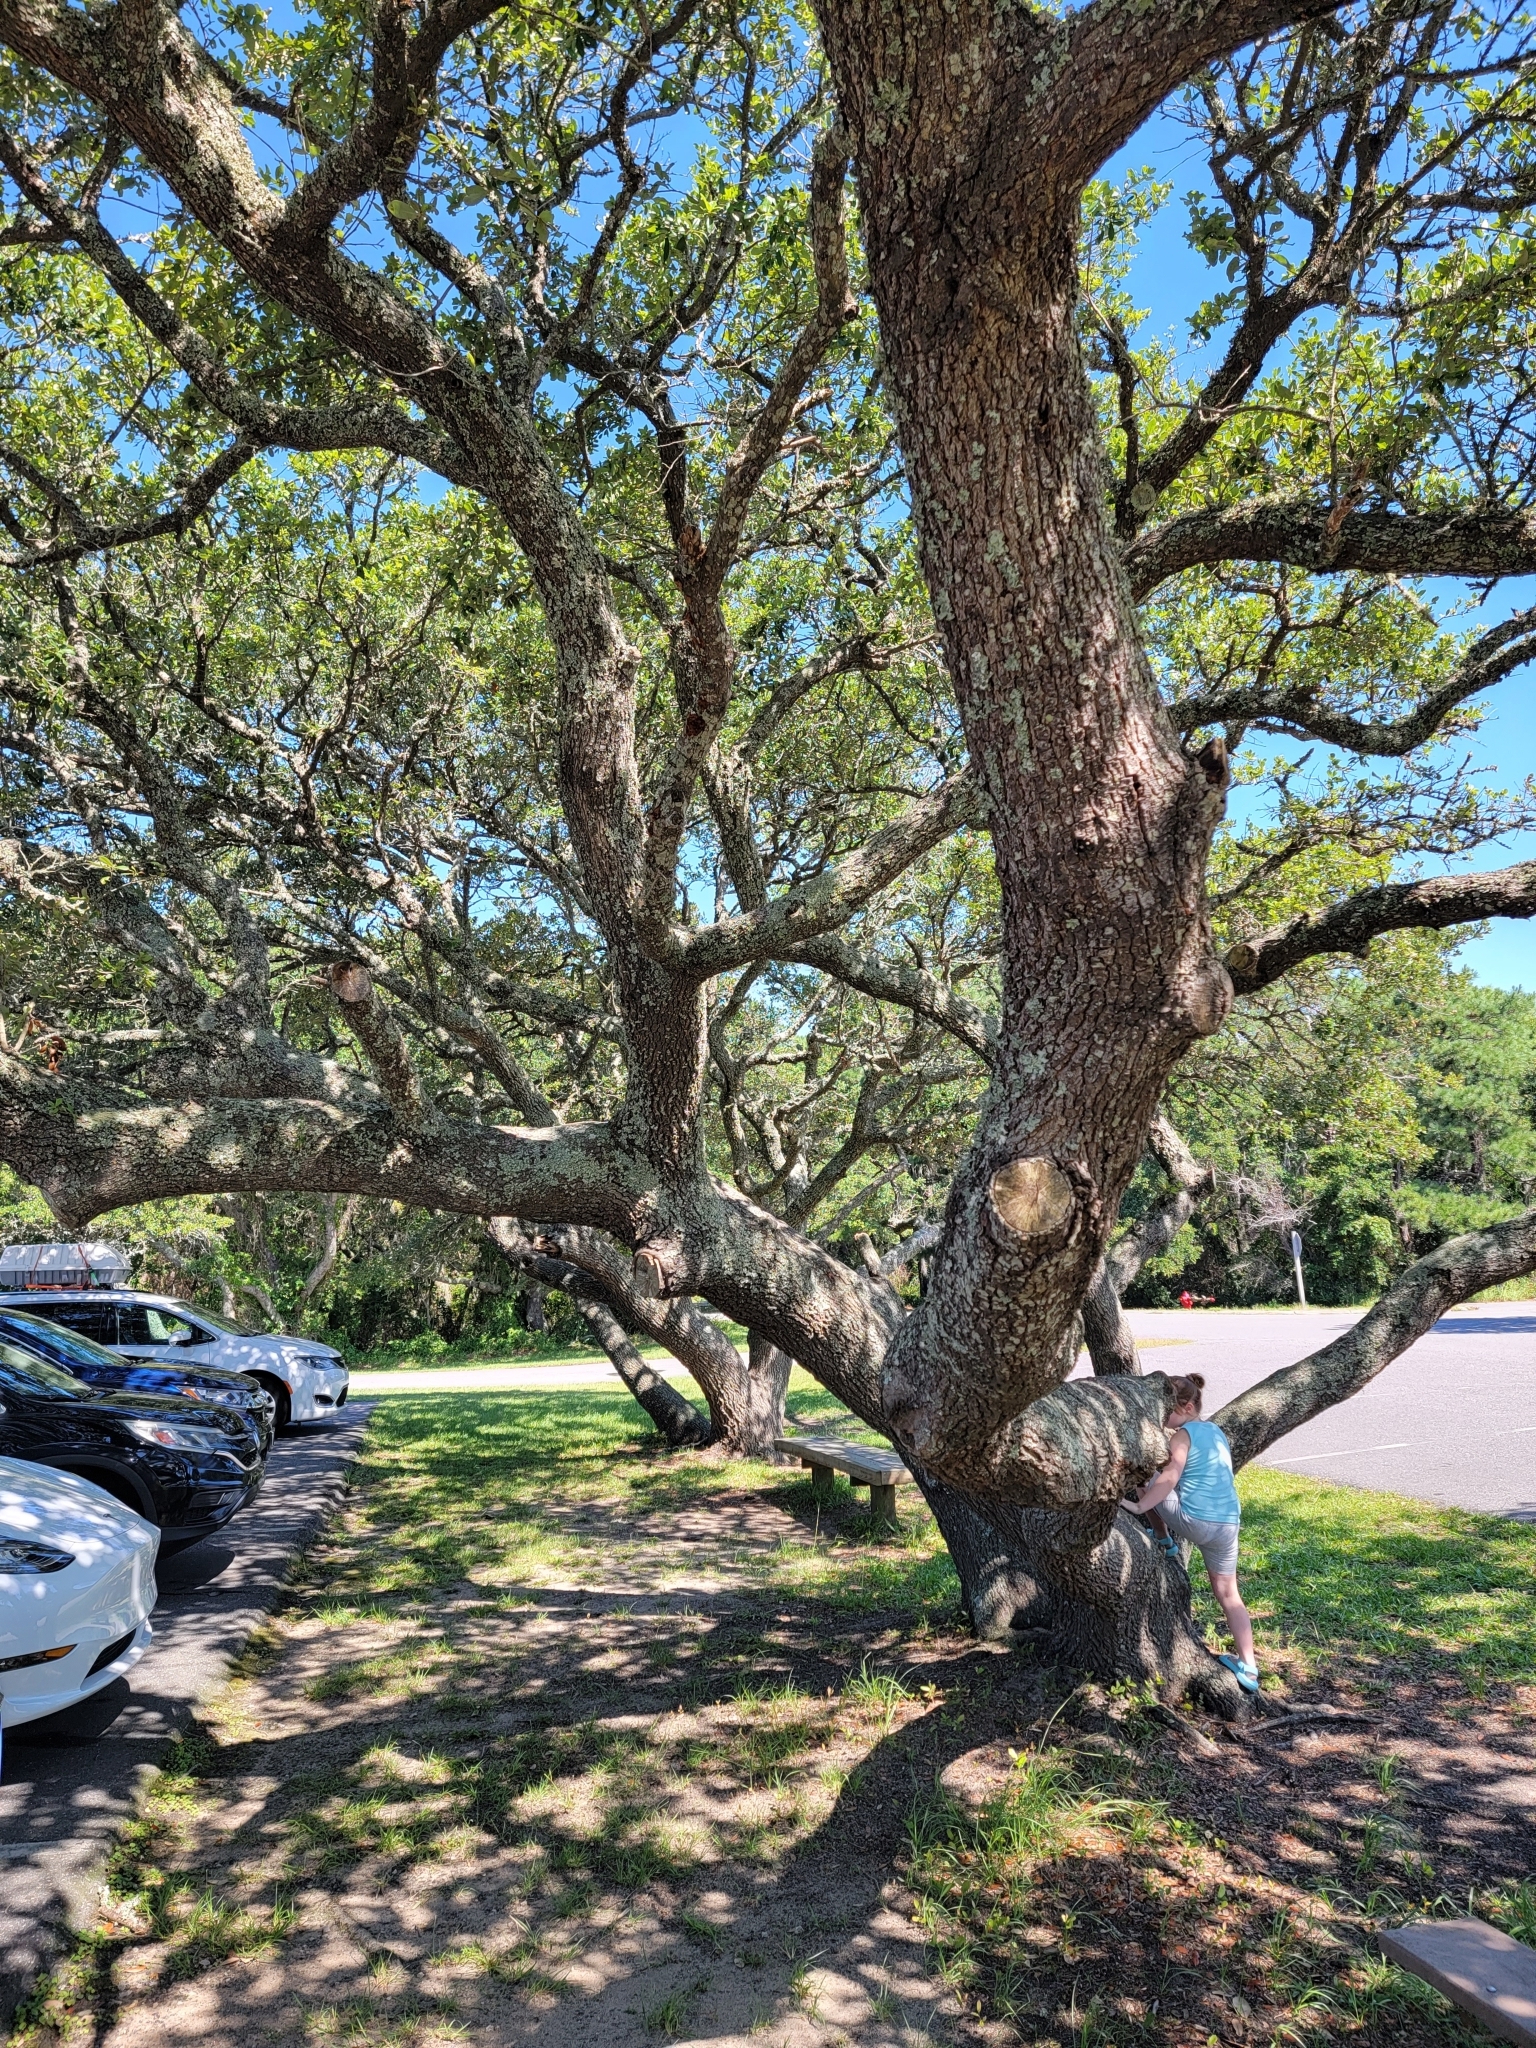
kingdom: Plantae
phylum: Tracheophyta
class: Magnoliopsida
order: Fagales
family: Fagaceae
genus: Quercus
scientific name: Quercus virginiana
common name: Southern live oak
